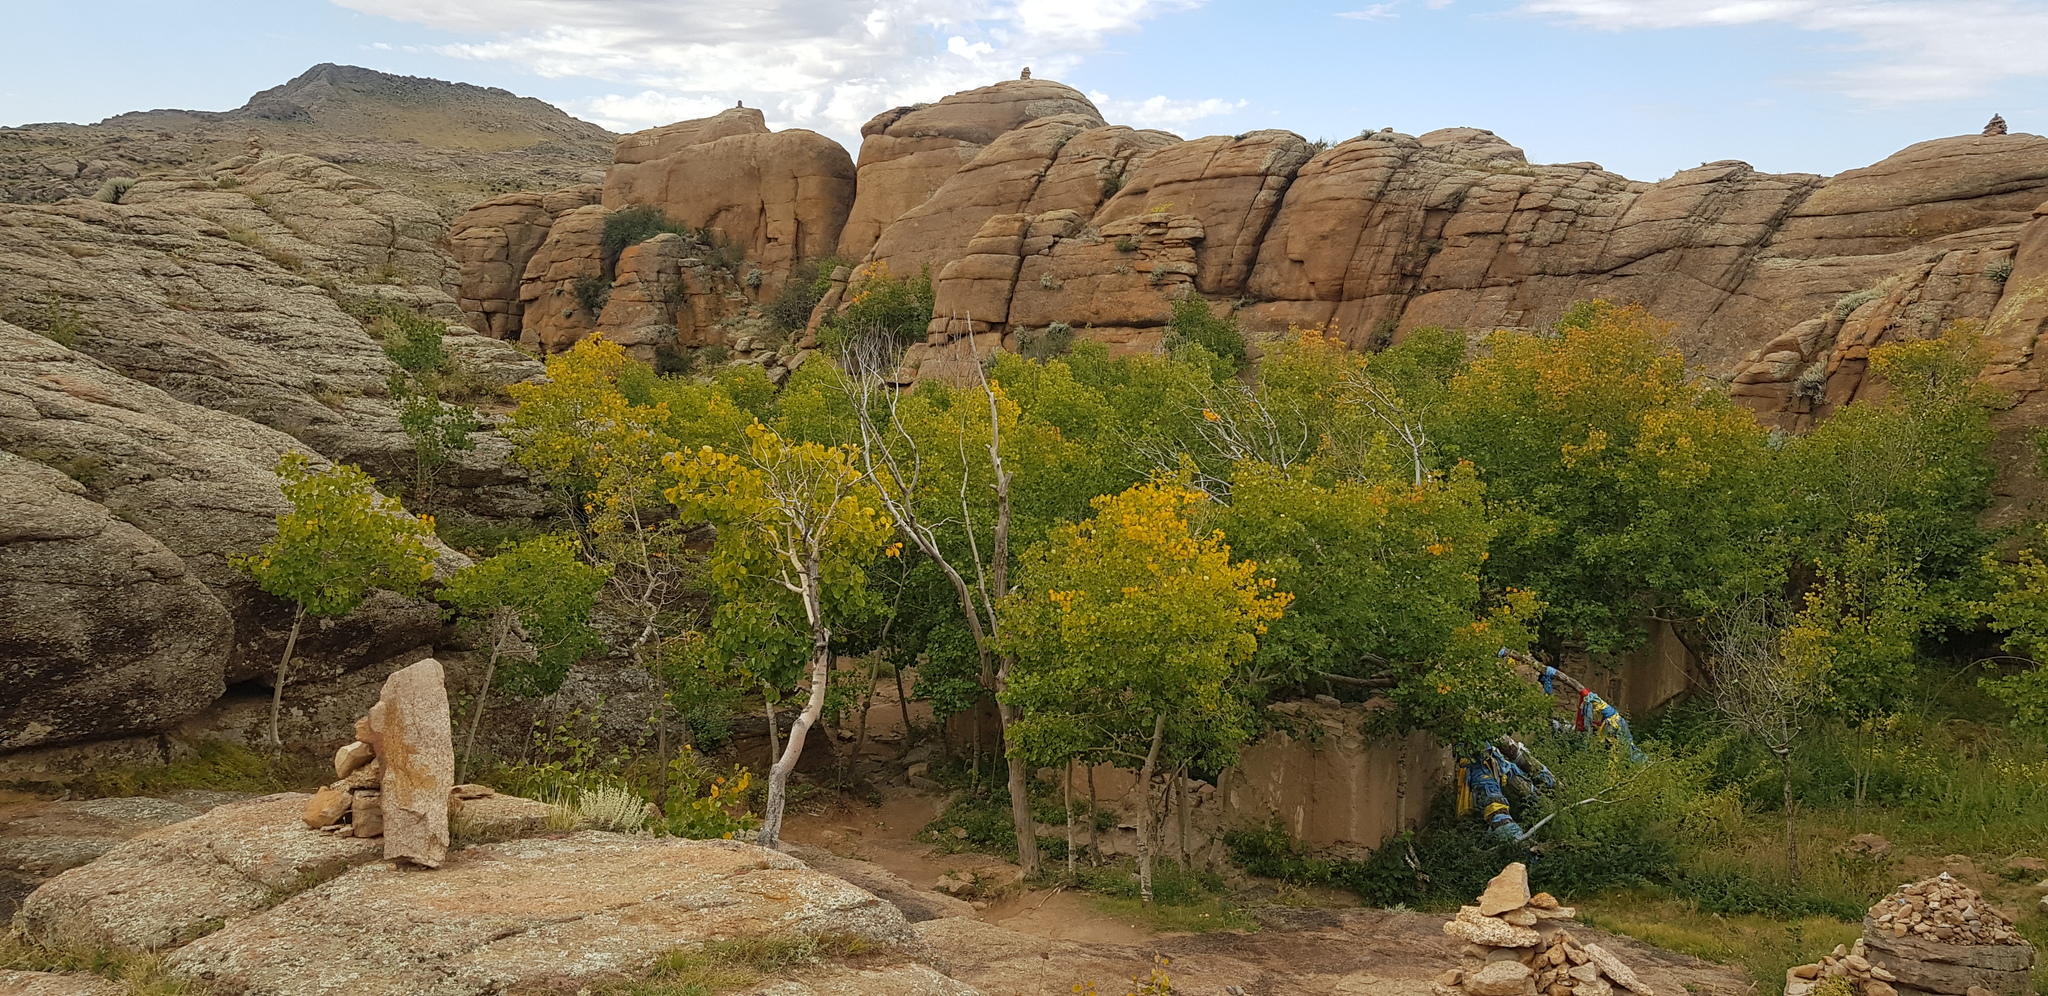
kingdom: Plantae
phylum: Tracheophyta
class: Magnoliopsida
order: Malpighiales
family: Salicaceae
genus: Populus
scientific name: Populus tremula
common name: European aspen
